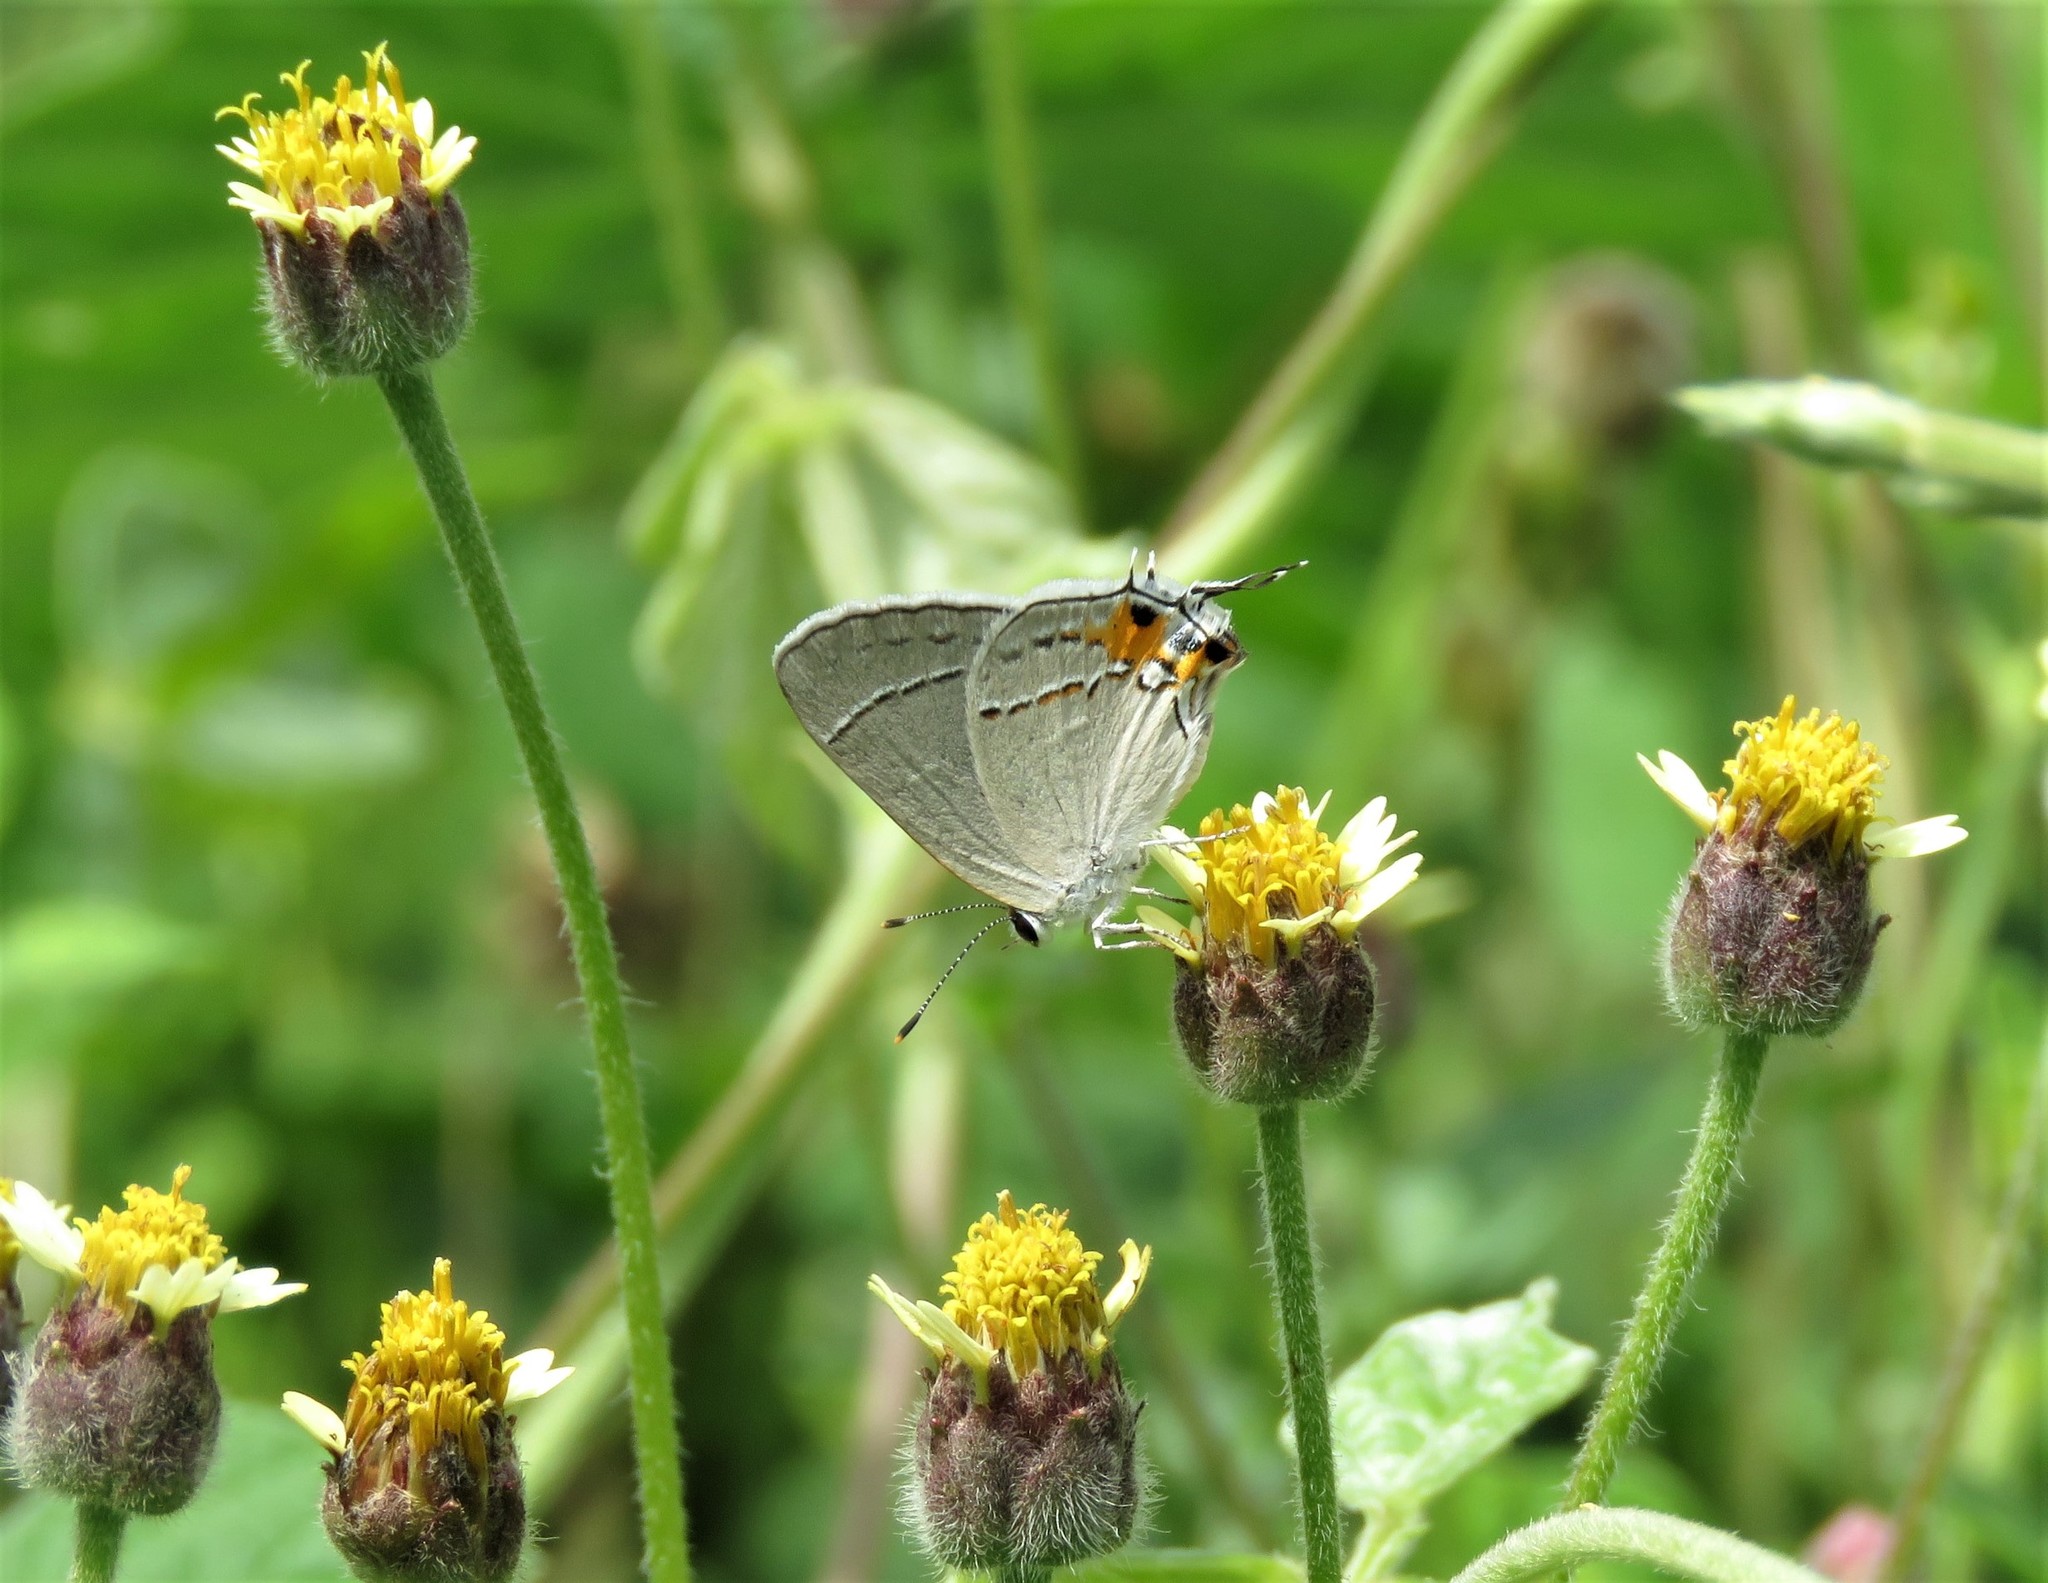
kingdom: Animalia
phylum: Arthropoda
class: Insecta
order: Lepidoptera
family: Lycaenidae
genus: Strymon
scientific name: Strymon melinus
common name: Gray hairstreak
